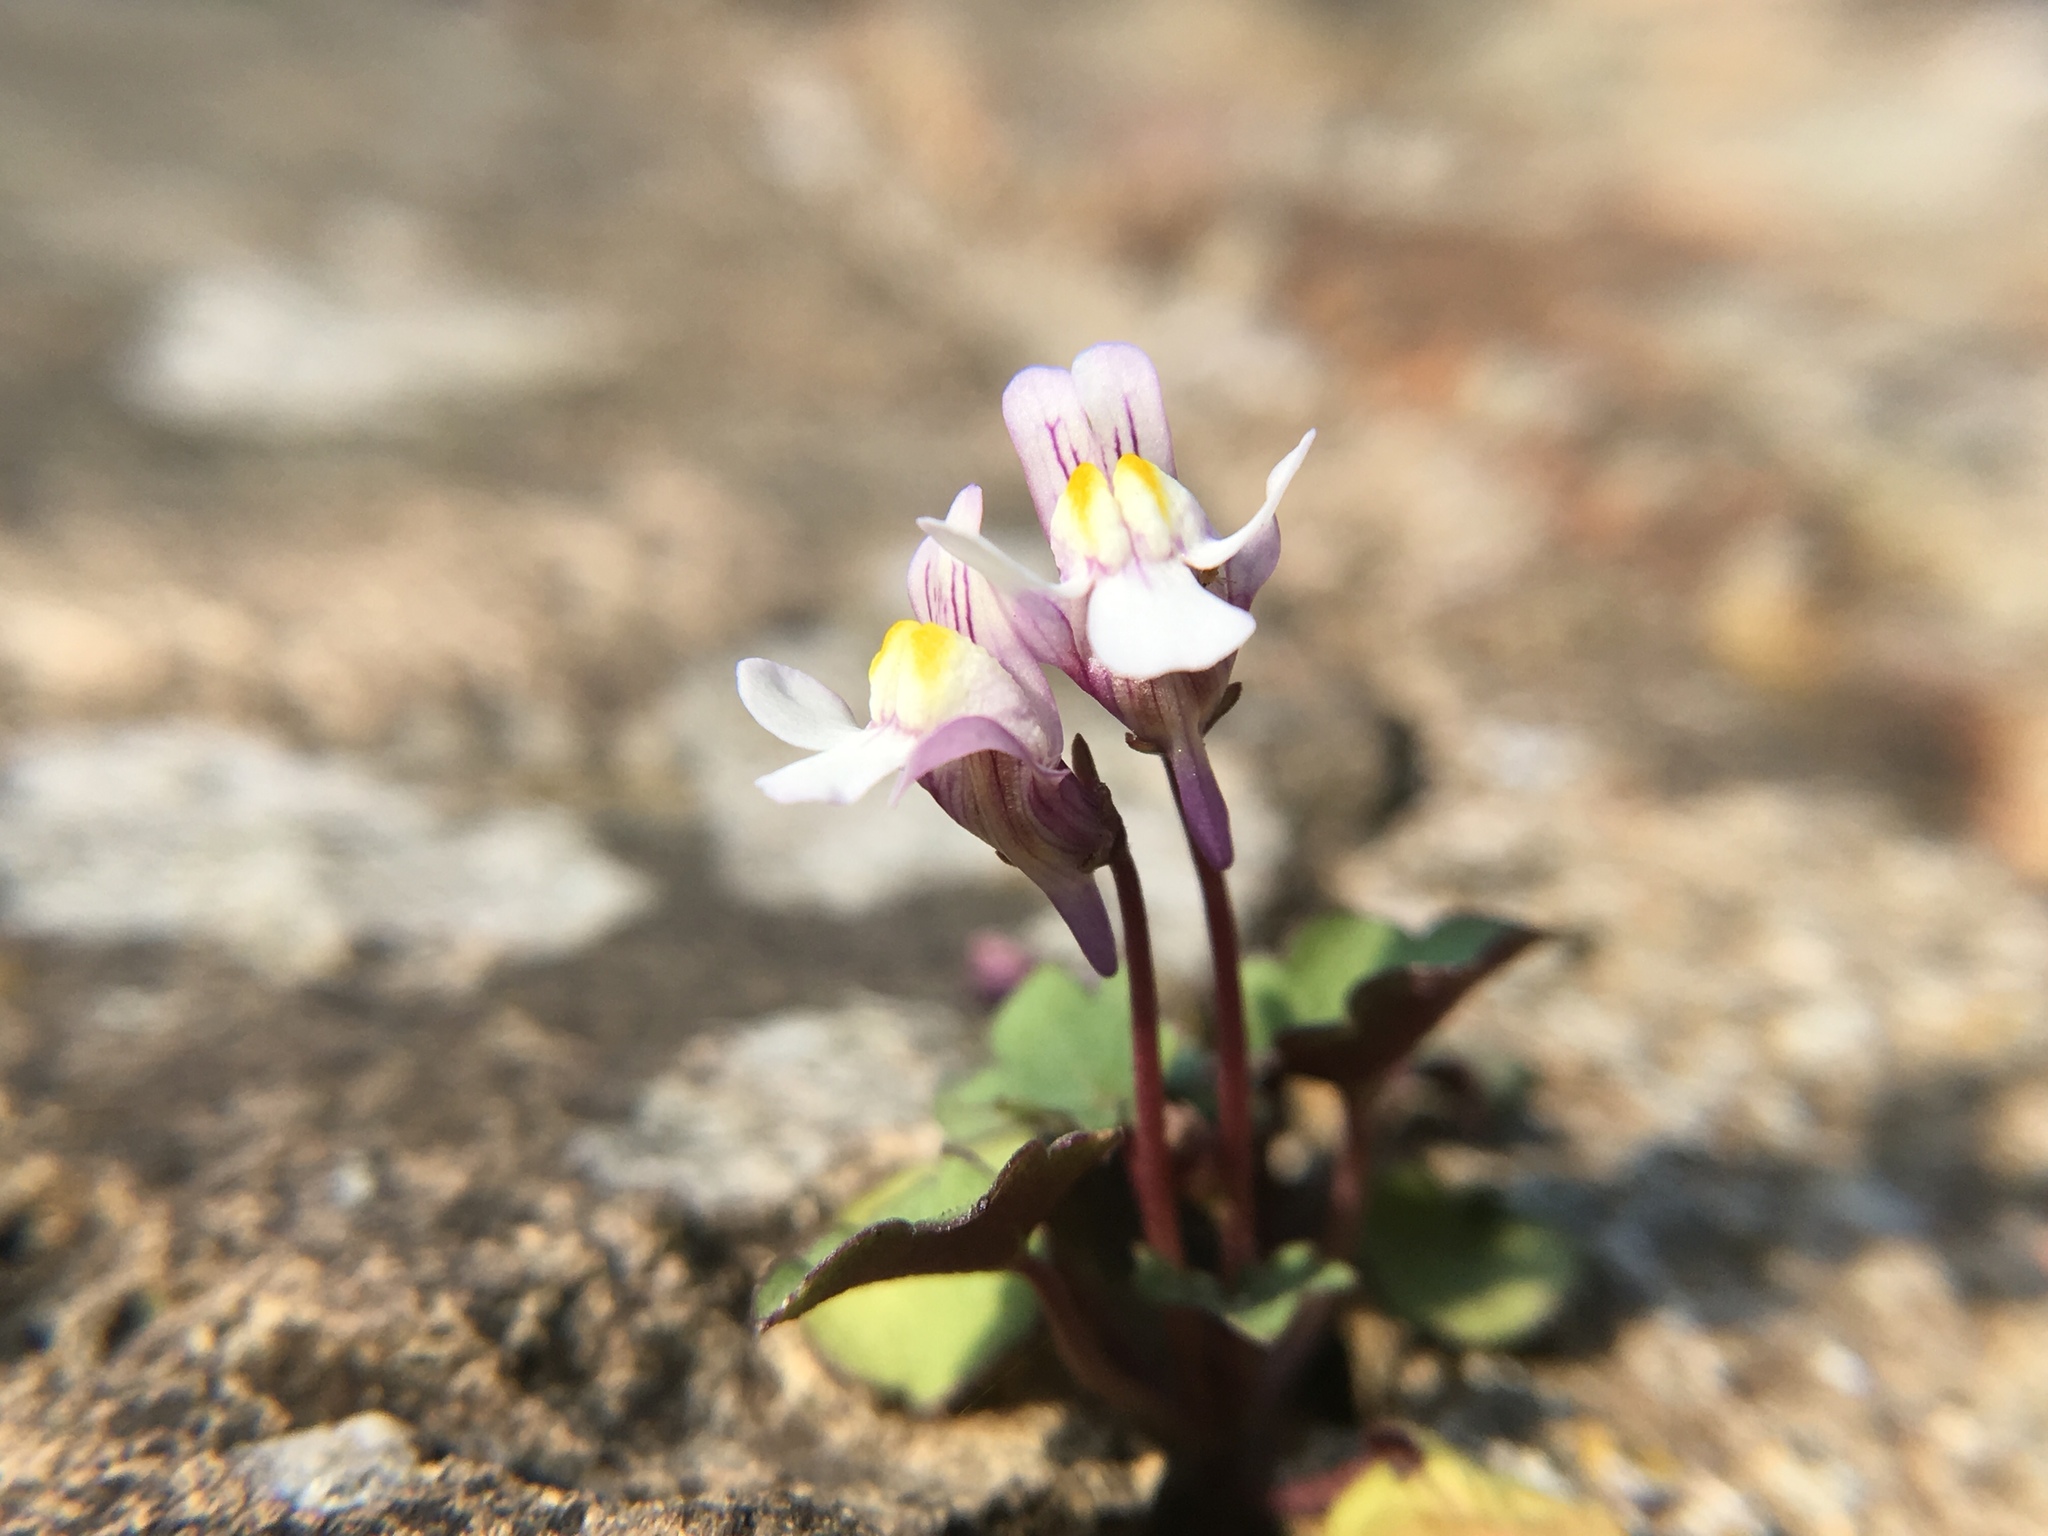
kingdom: Plantae
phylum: Tracheophyta
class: Magnoliopsida
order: Lamiales
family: Plantaginaceae
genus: Cymbalaria
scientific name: Cymbalaria muralis
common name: Ivy-leaved toadflax
